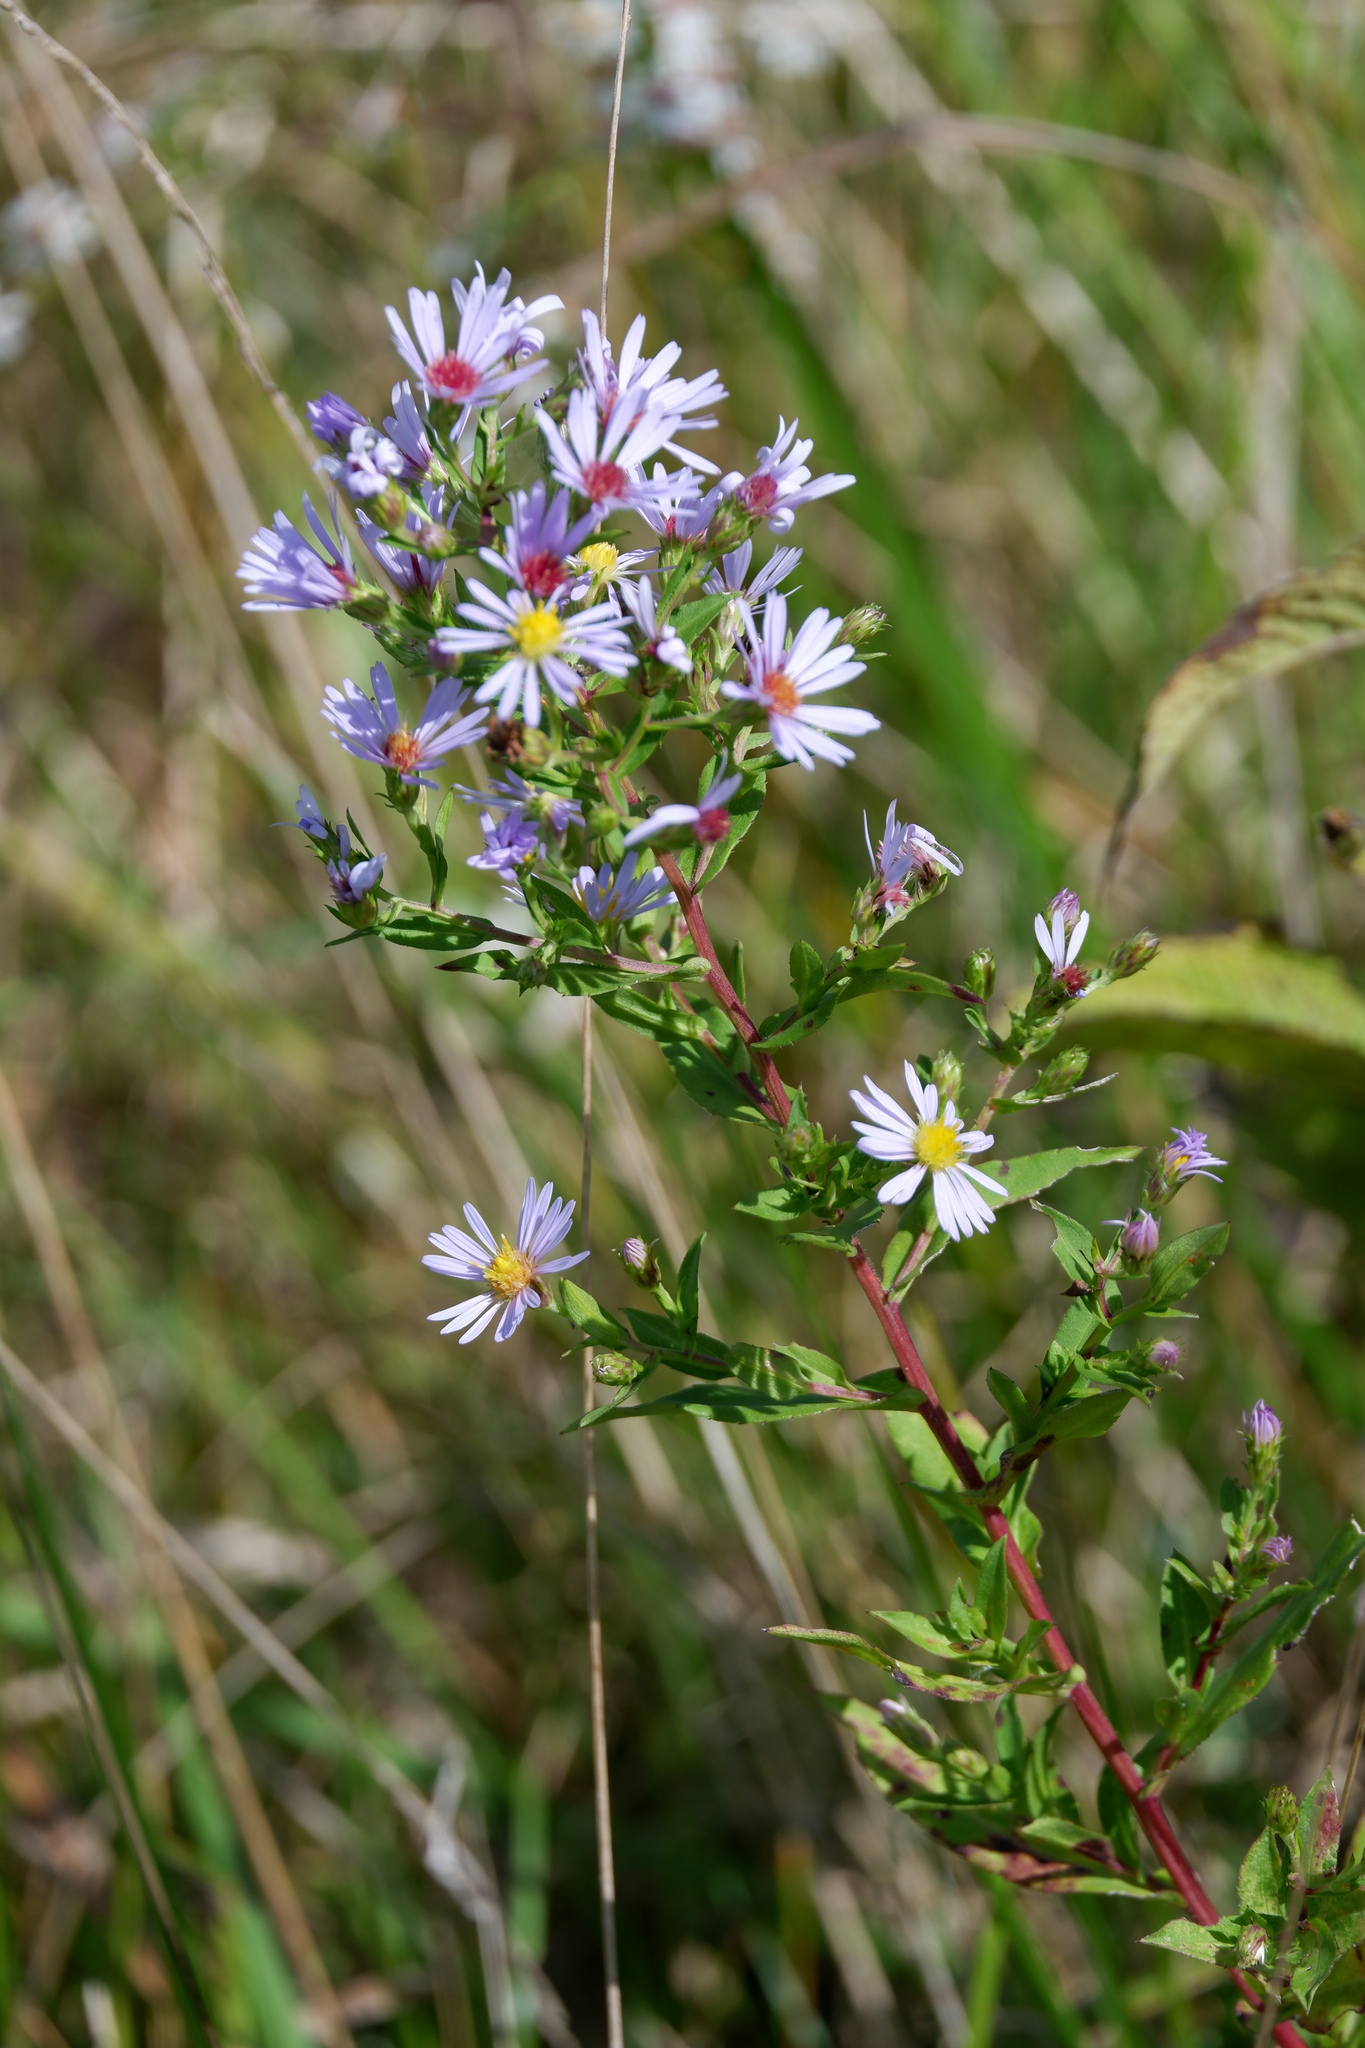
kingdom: Plantae
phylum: Tracheophyta
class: Magnoliopsida
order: Asterales
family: Asteraceae
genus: Symphyotrichum
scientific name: Symphyotrichum puniceum
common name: Bog aster
